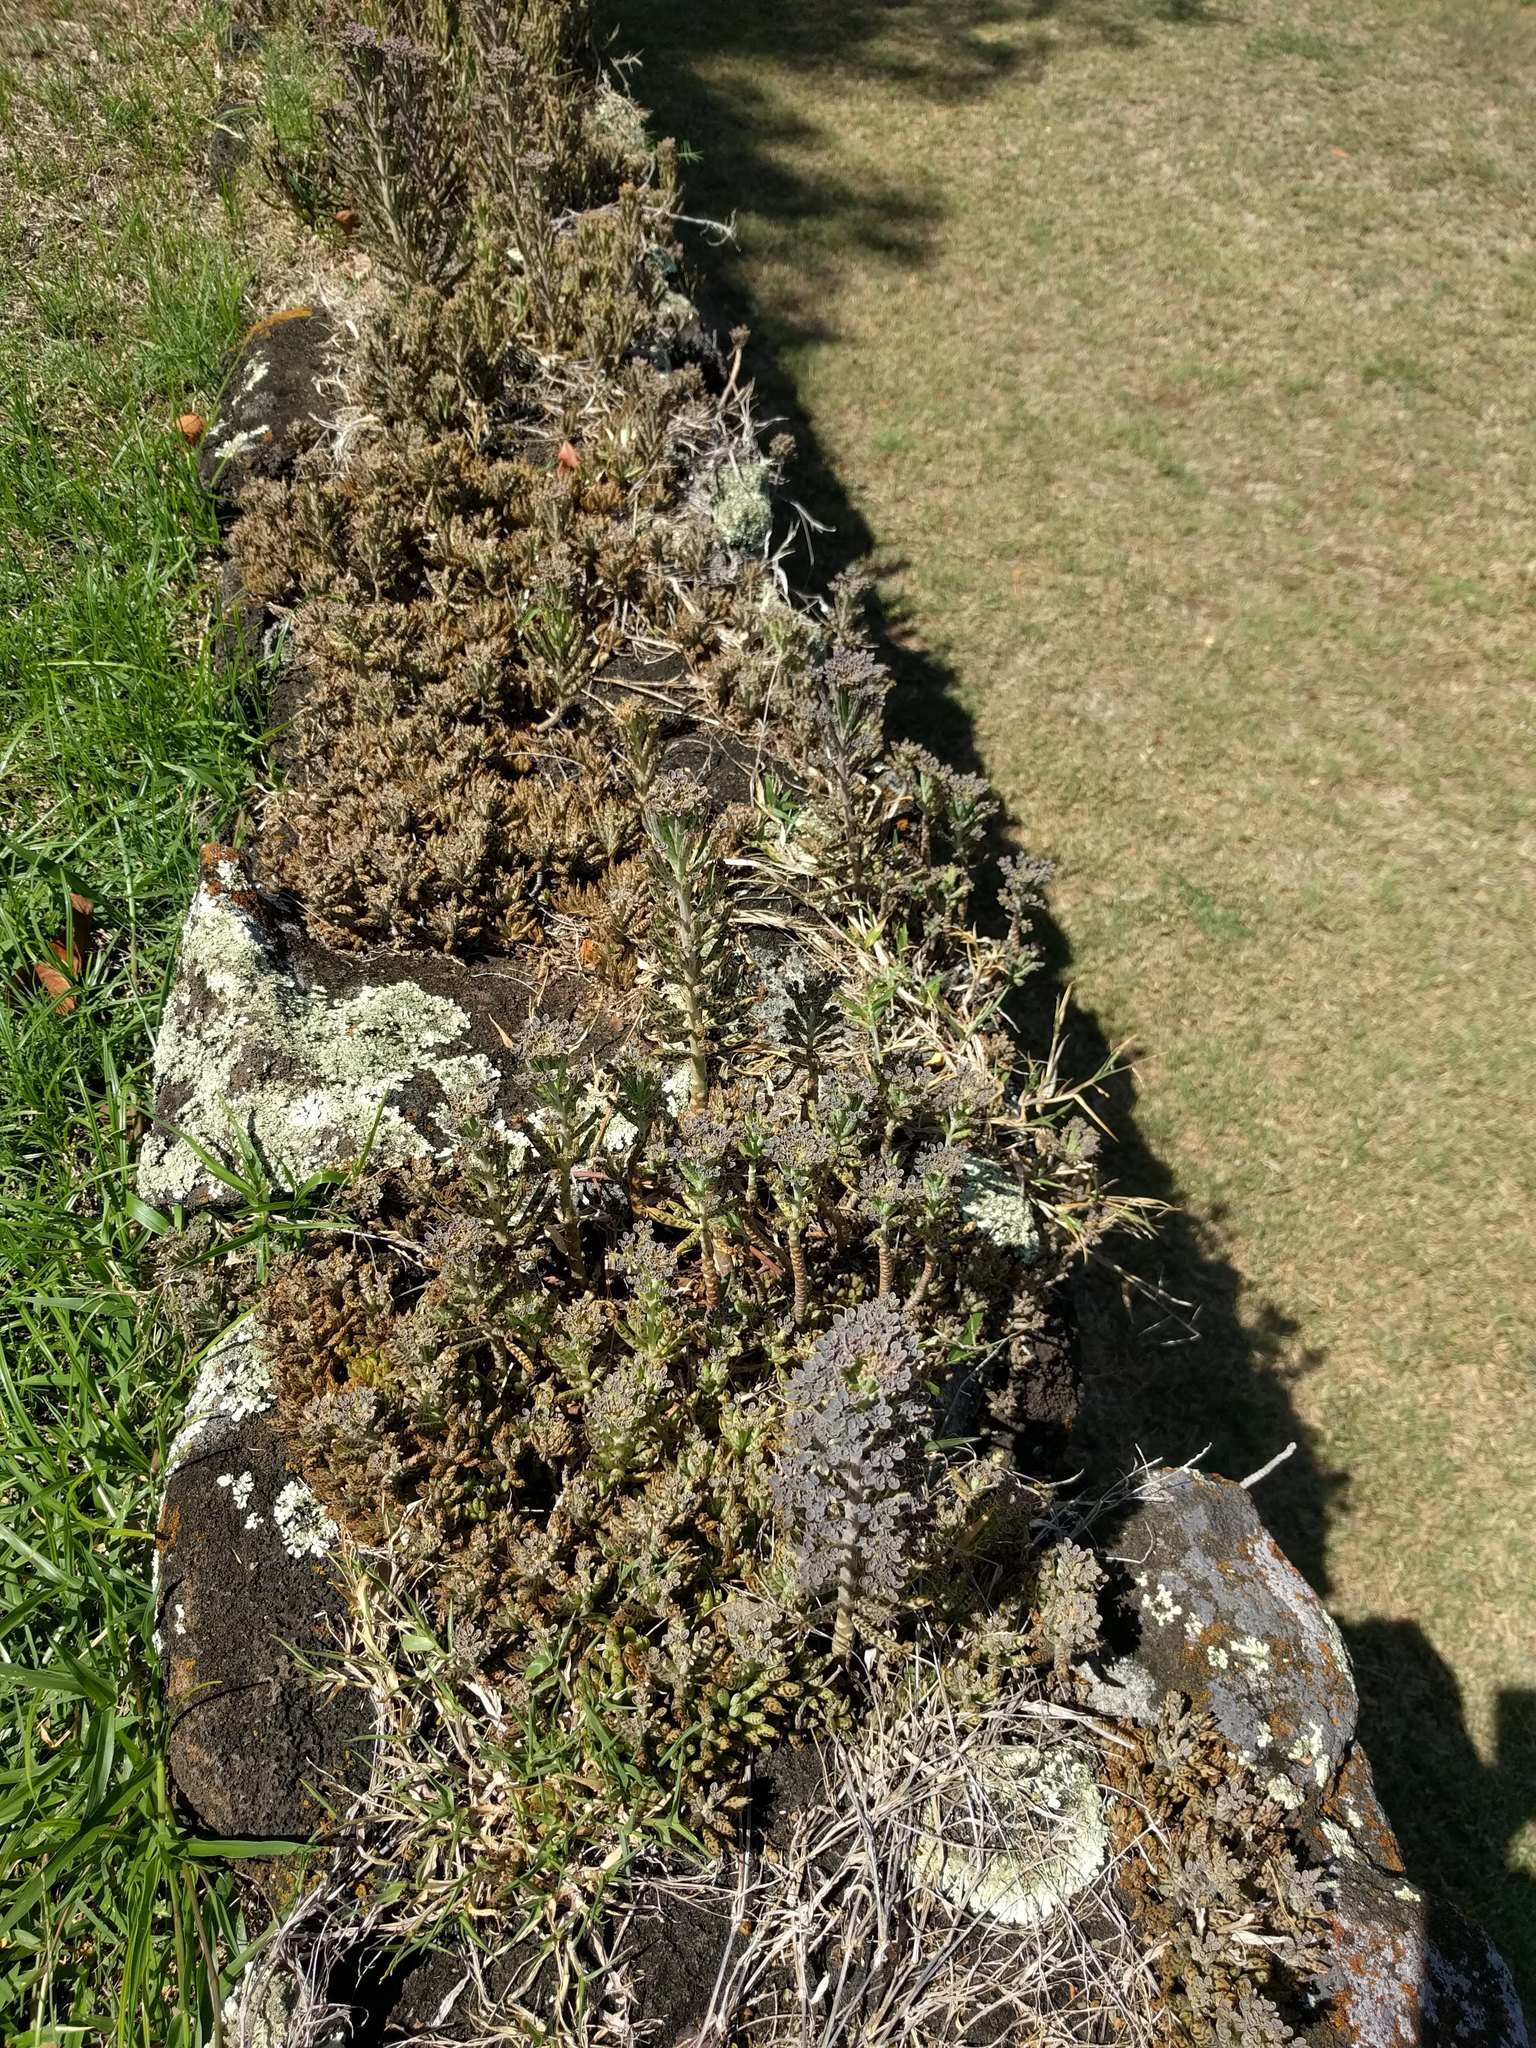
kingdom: Plantae
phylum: Tracheophyta
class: Magnoliopsida
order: Saxifragales
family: Crassulaceae
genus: Kalanchoe
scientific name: Kalanchoe delagoensis
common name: Chandelier plant
